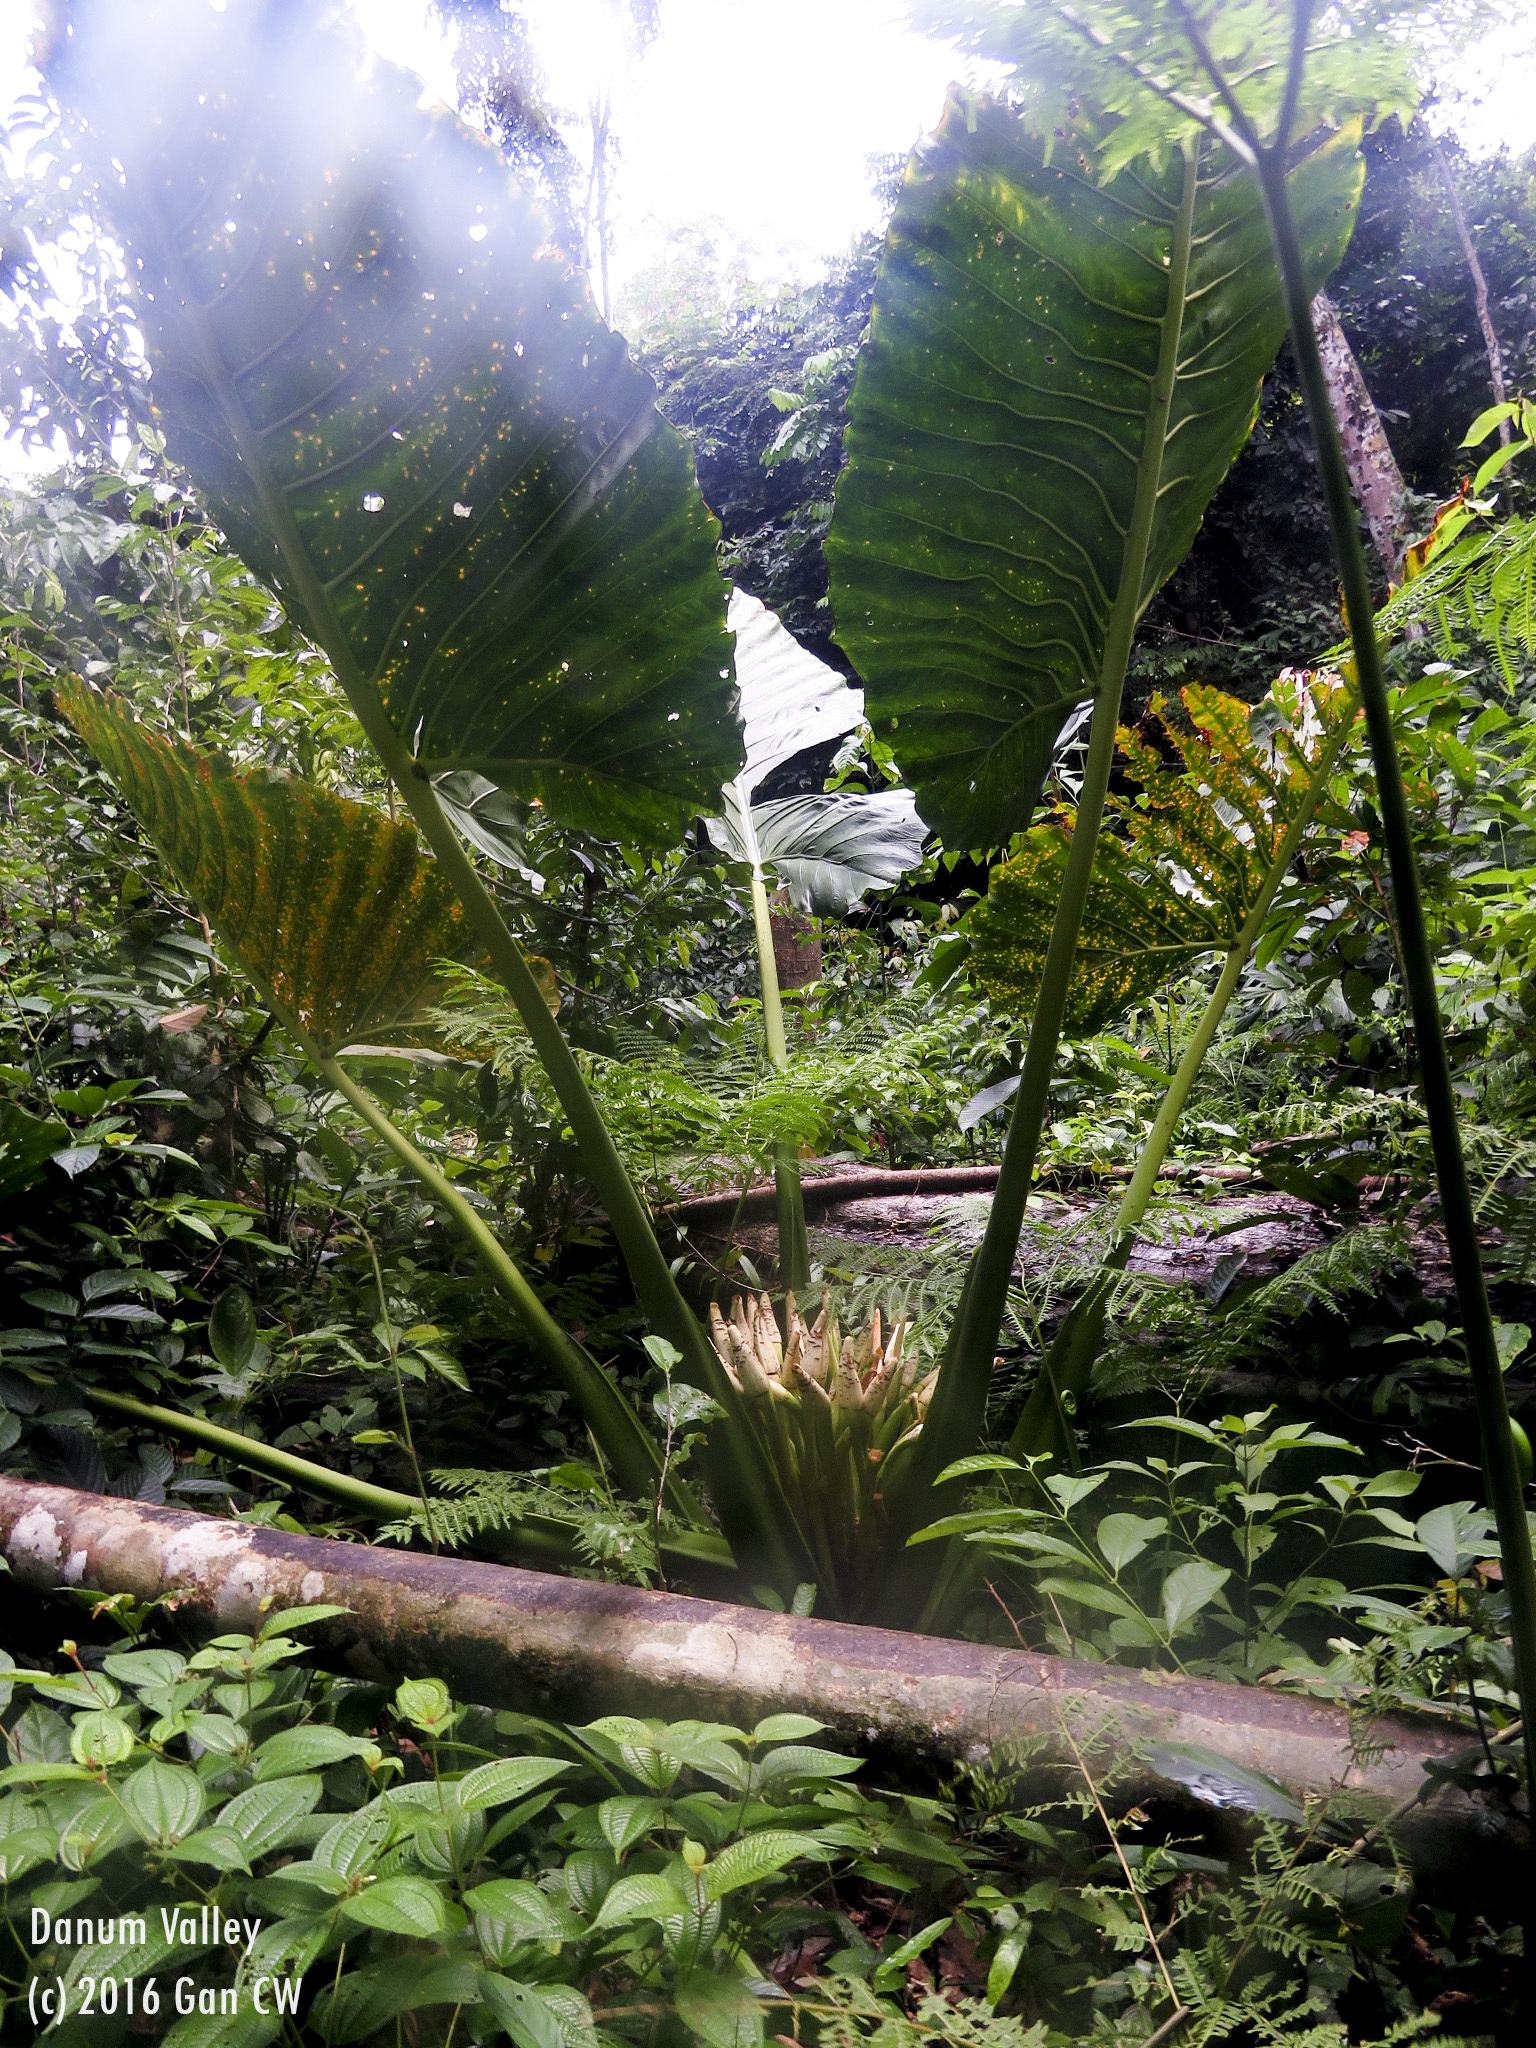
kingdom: Plantae
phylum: Tracheophyta
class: Liliopsida
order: Alismatales
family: Araceae
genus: Alocasia
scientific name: Alocasia robusta
